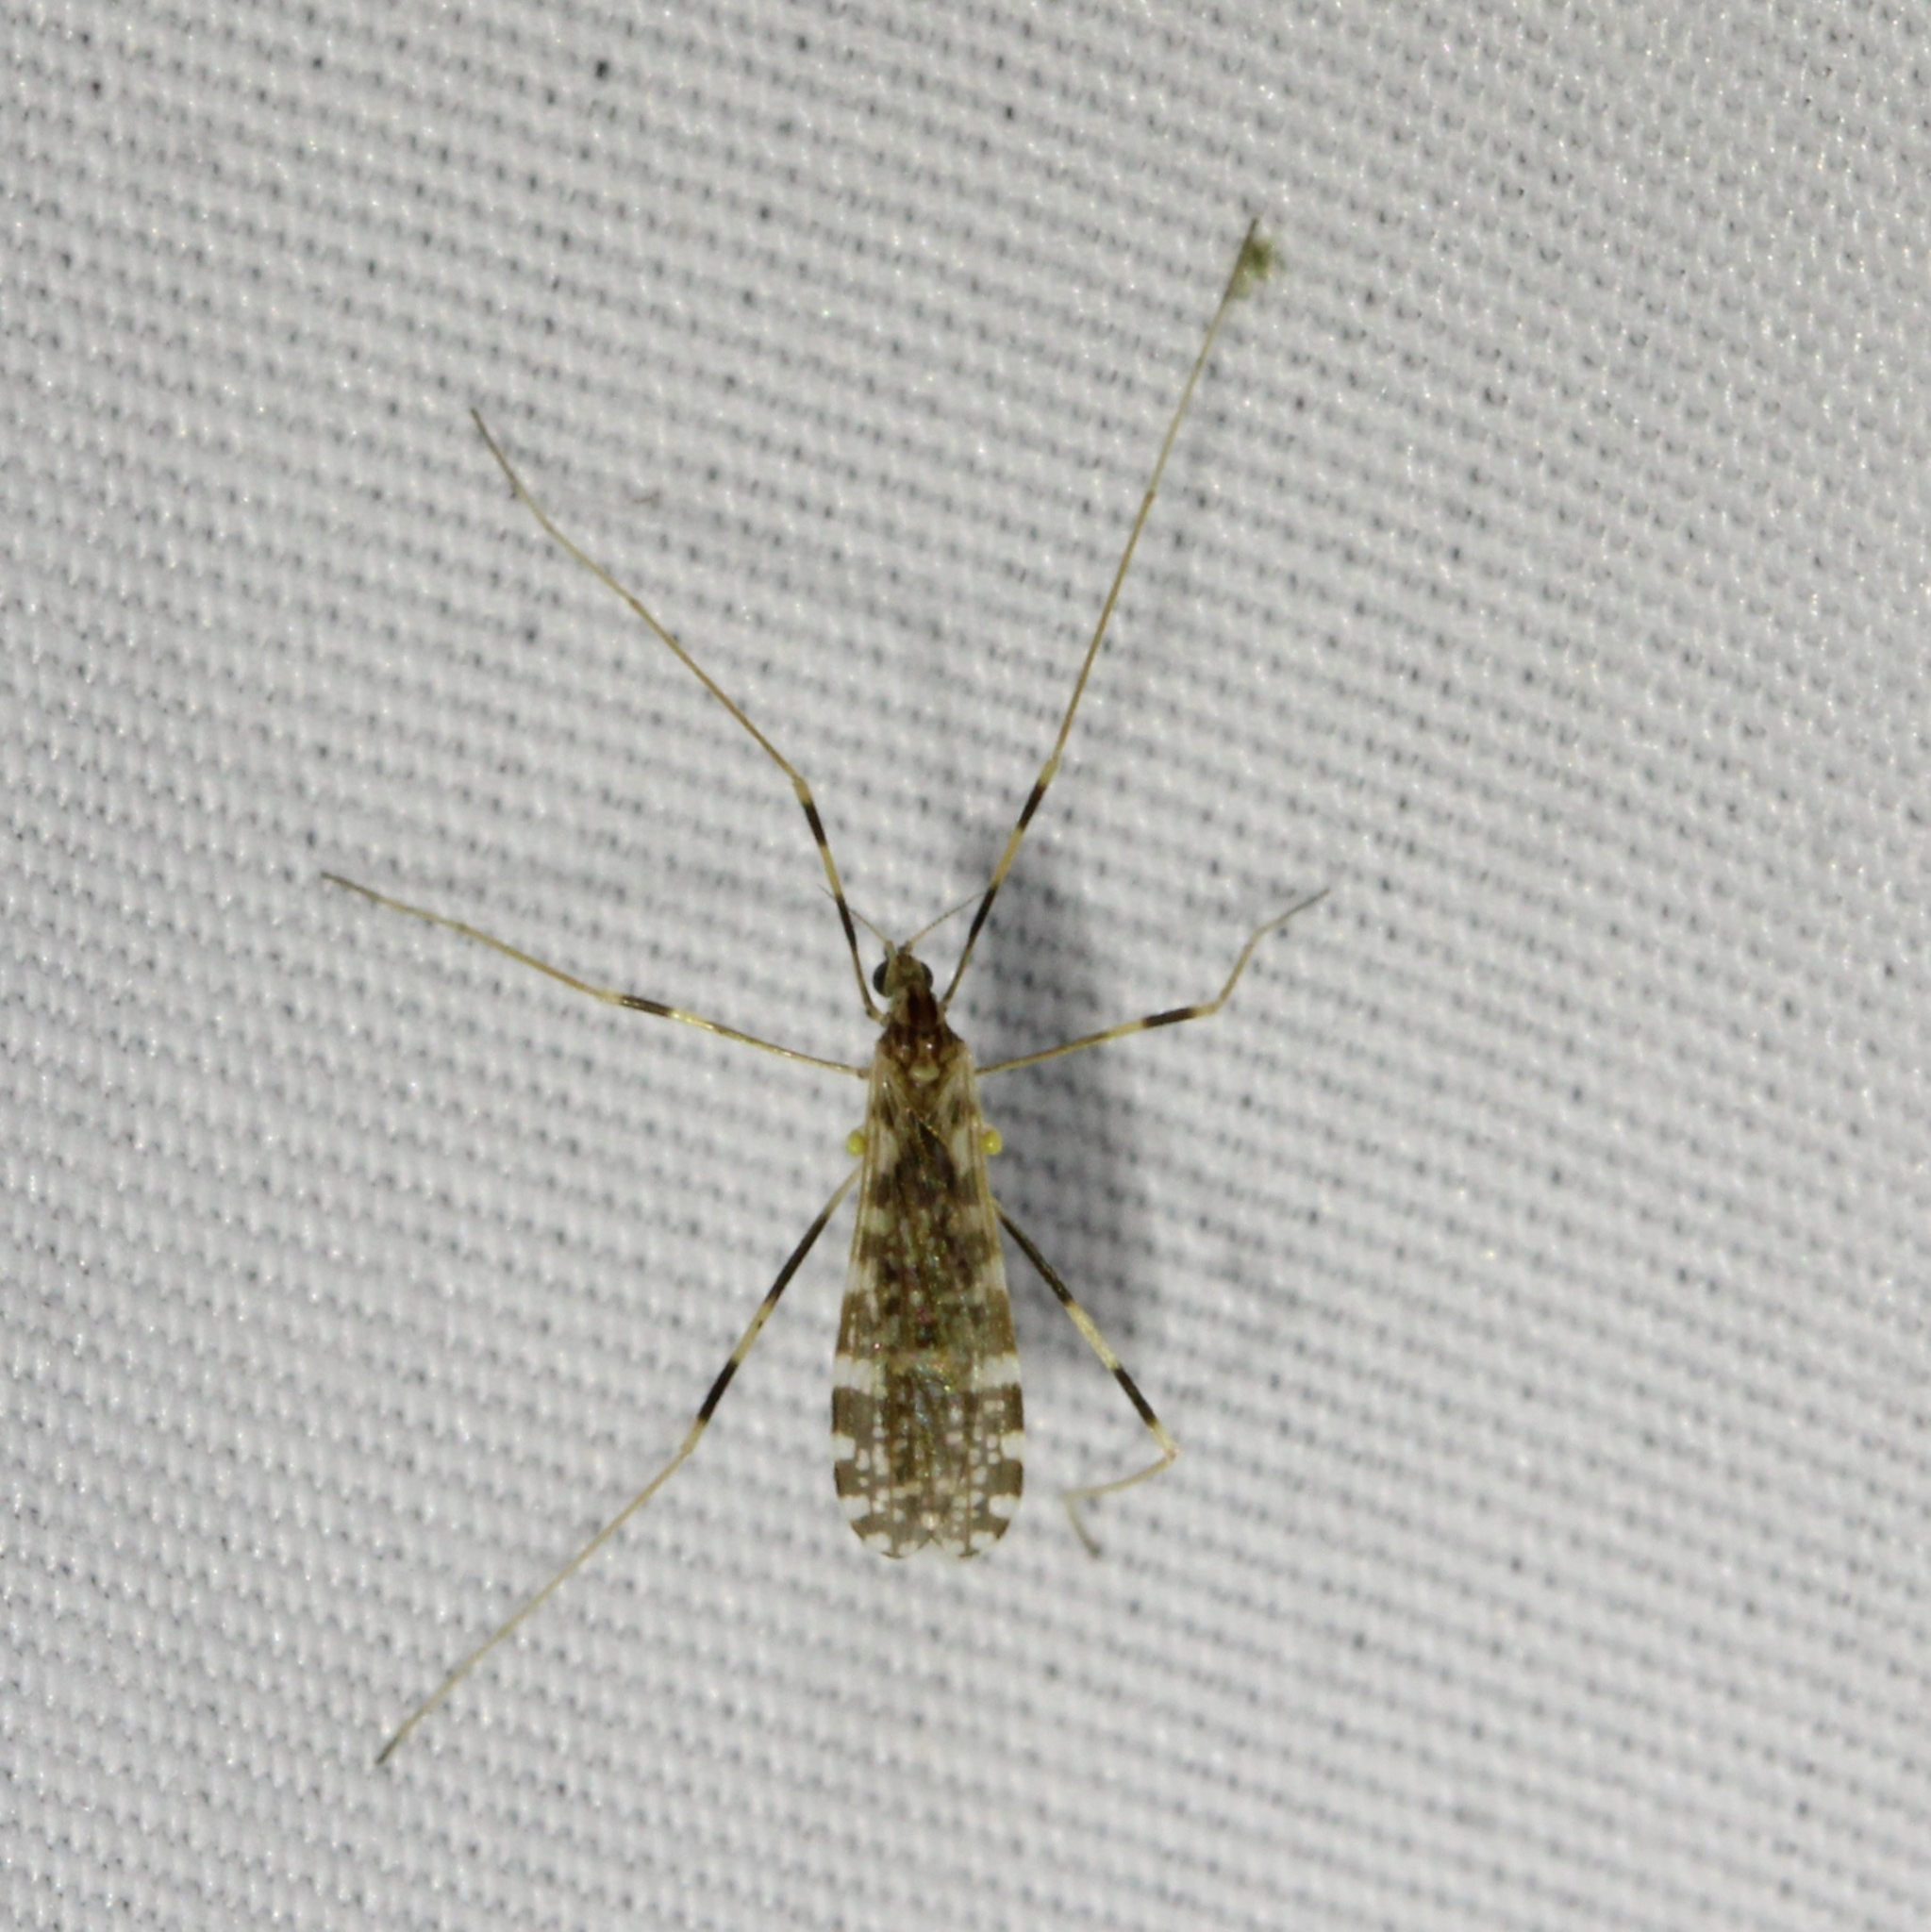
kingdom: Animalia
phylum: Arthropoda
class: Insecta
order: Diptera
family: Limoniidae
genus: Erioptera
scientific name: Erioptera caliptera
